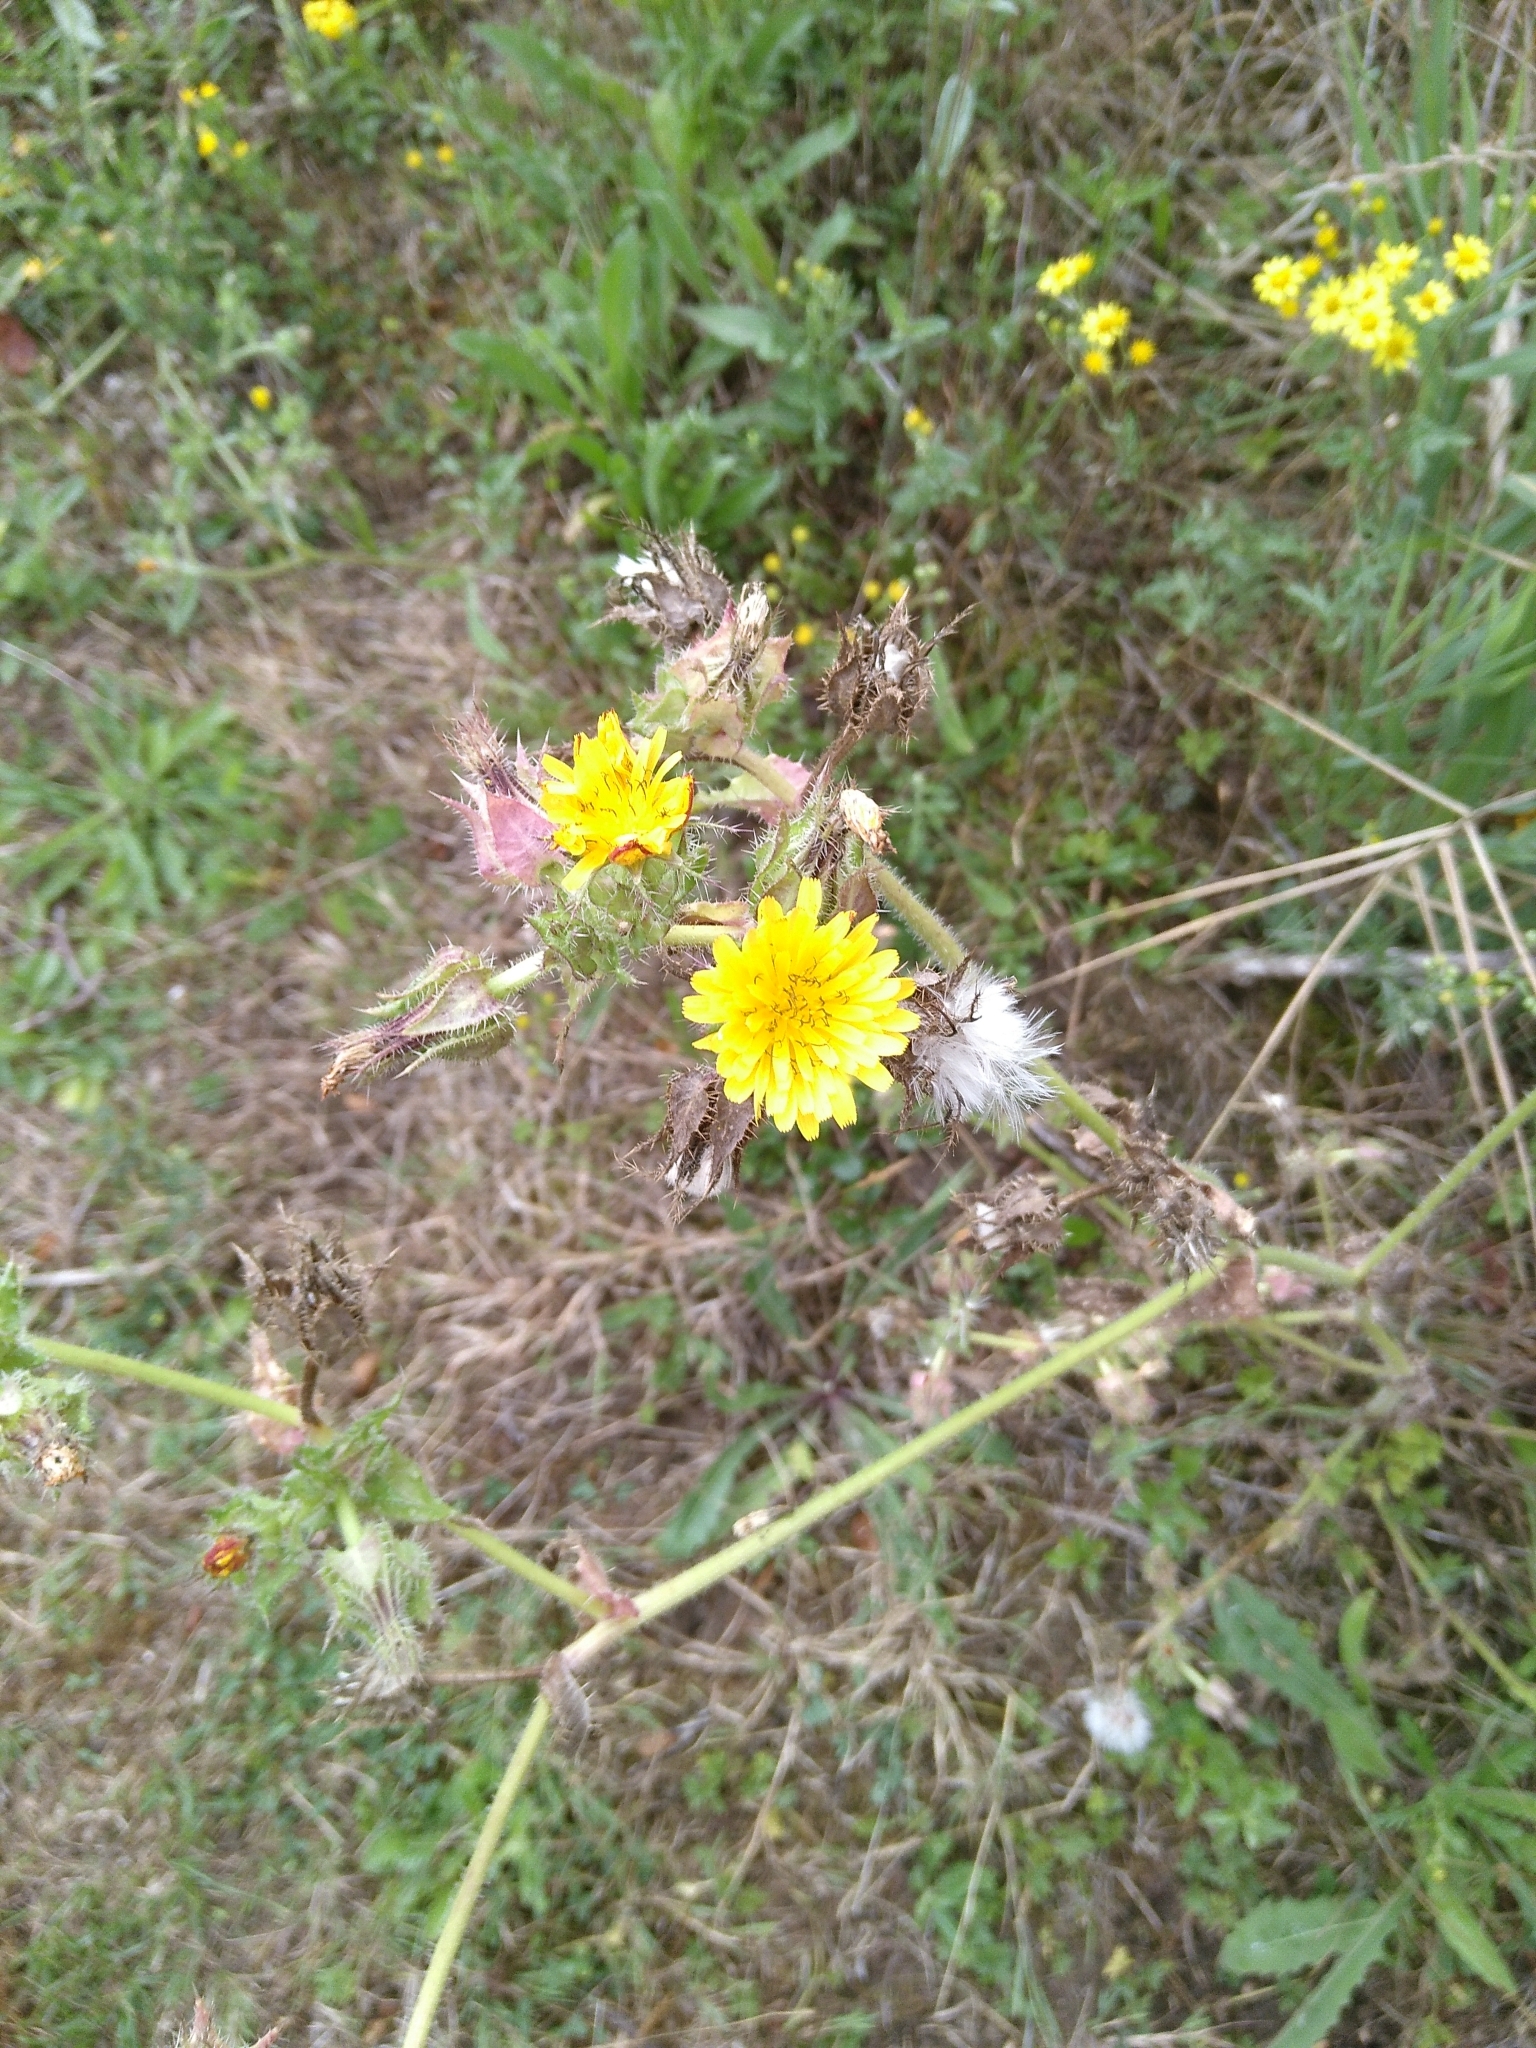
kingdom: Plantae
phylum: Tracheophyta
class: Magnoliopsida
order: Asterales
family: Asteraceae
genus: Helminthotheca
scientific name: Helminthotheca echioides
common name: Ox-tongue
